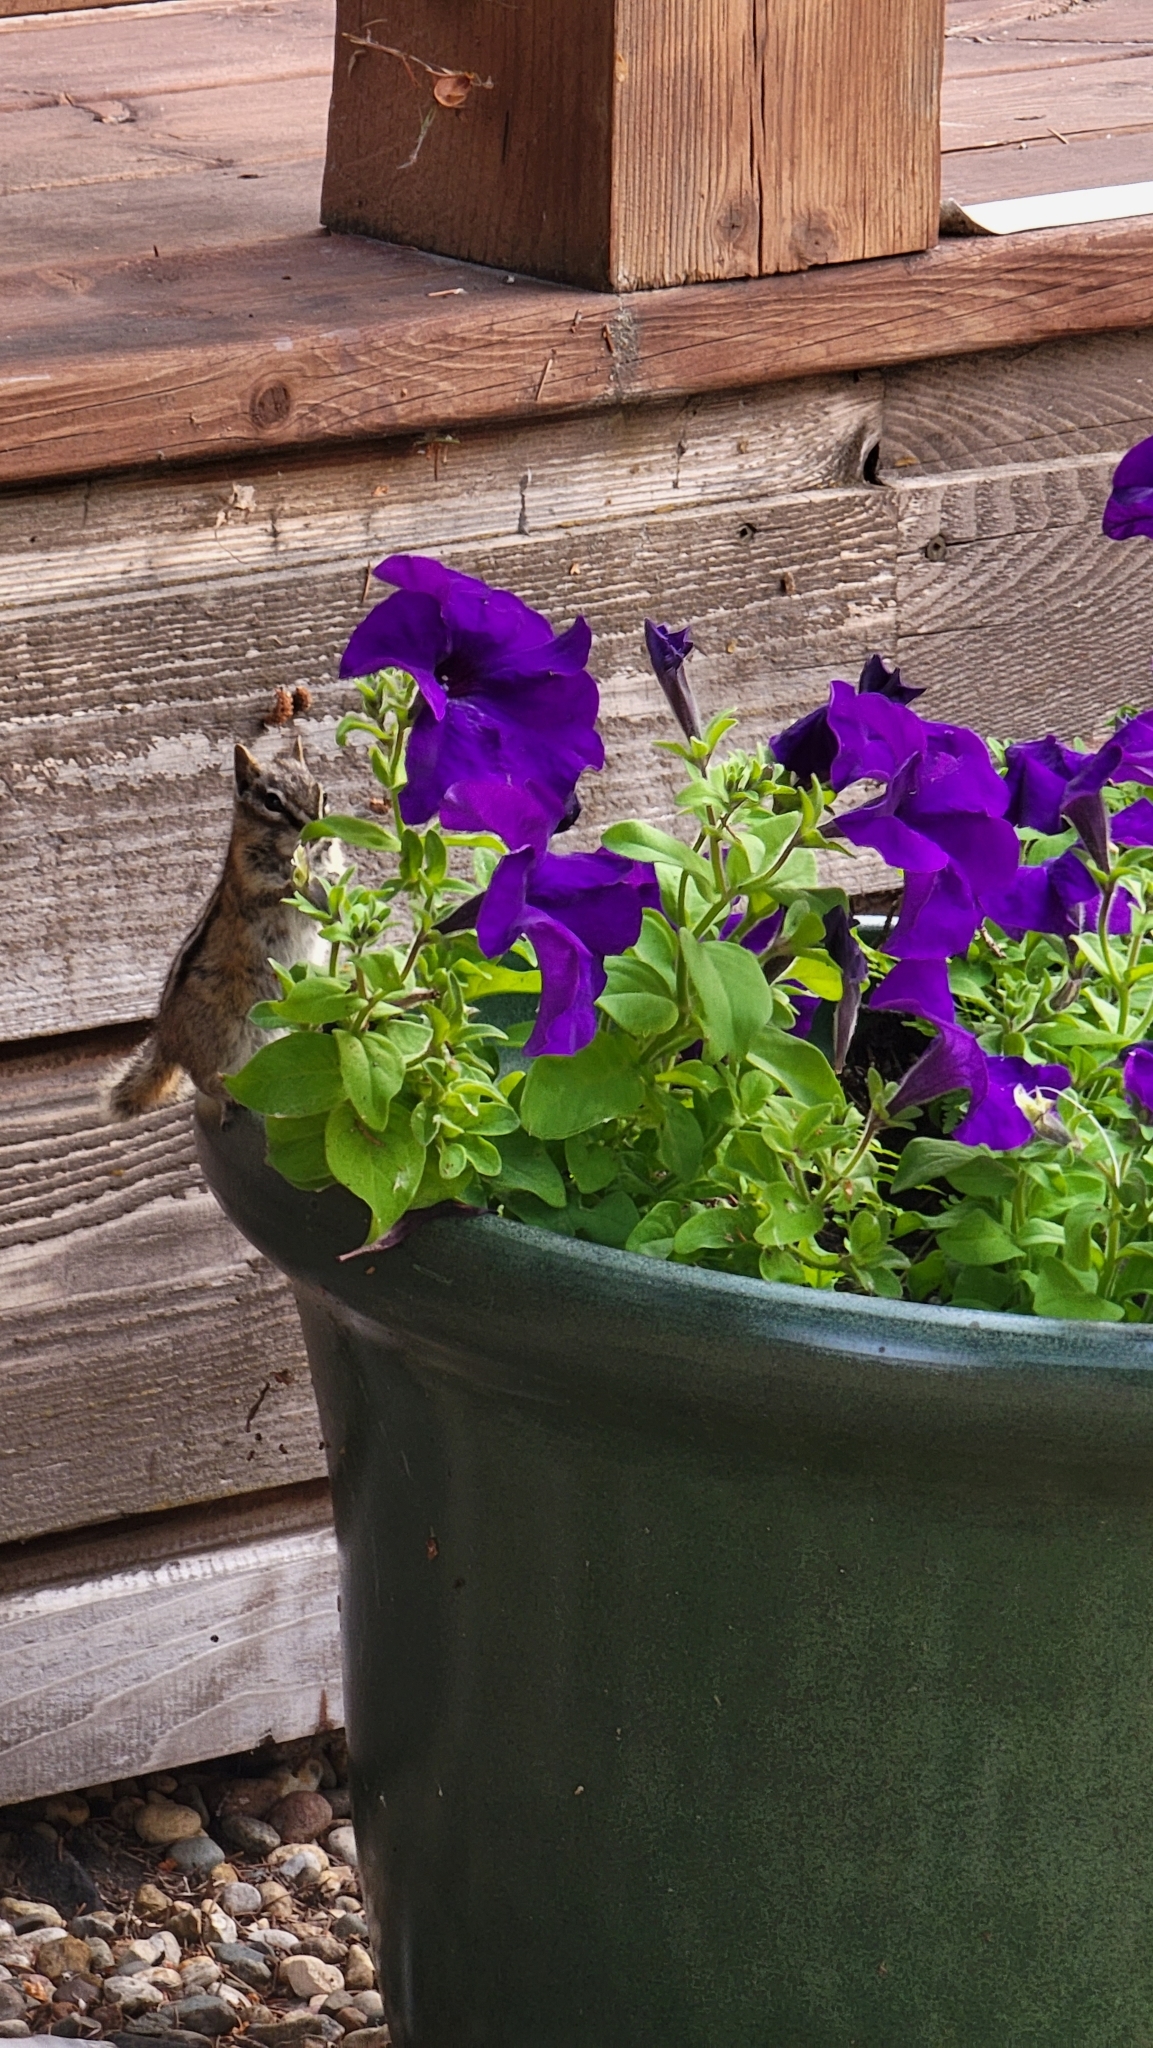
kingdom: Animalia
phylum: Chordata
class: Mammalia
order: Rodentia
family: Sciuridae
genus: Tamias
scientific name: Tamias minimus
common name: Least chipmunk
